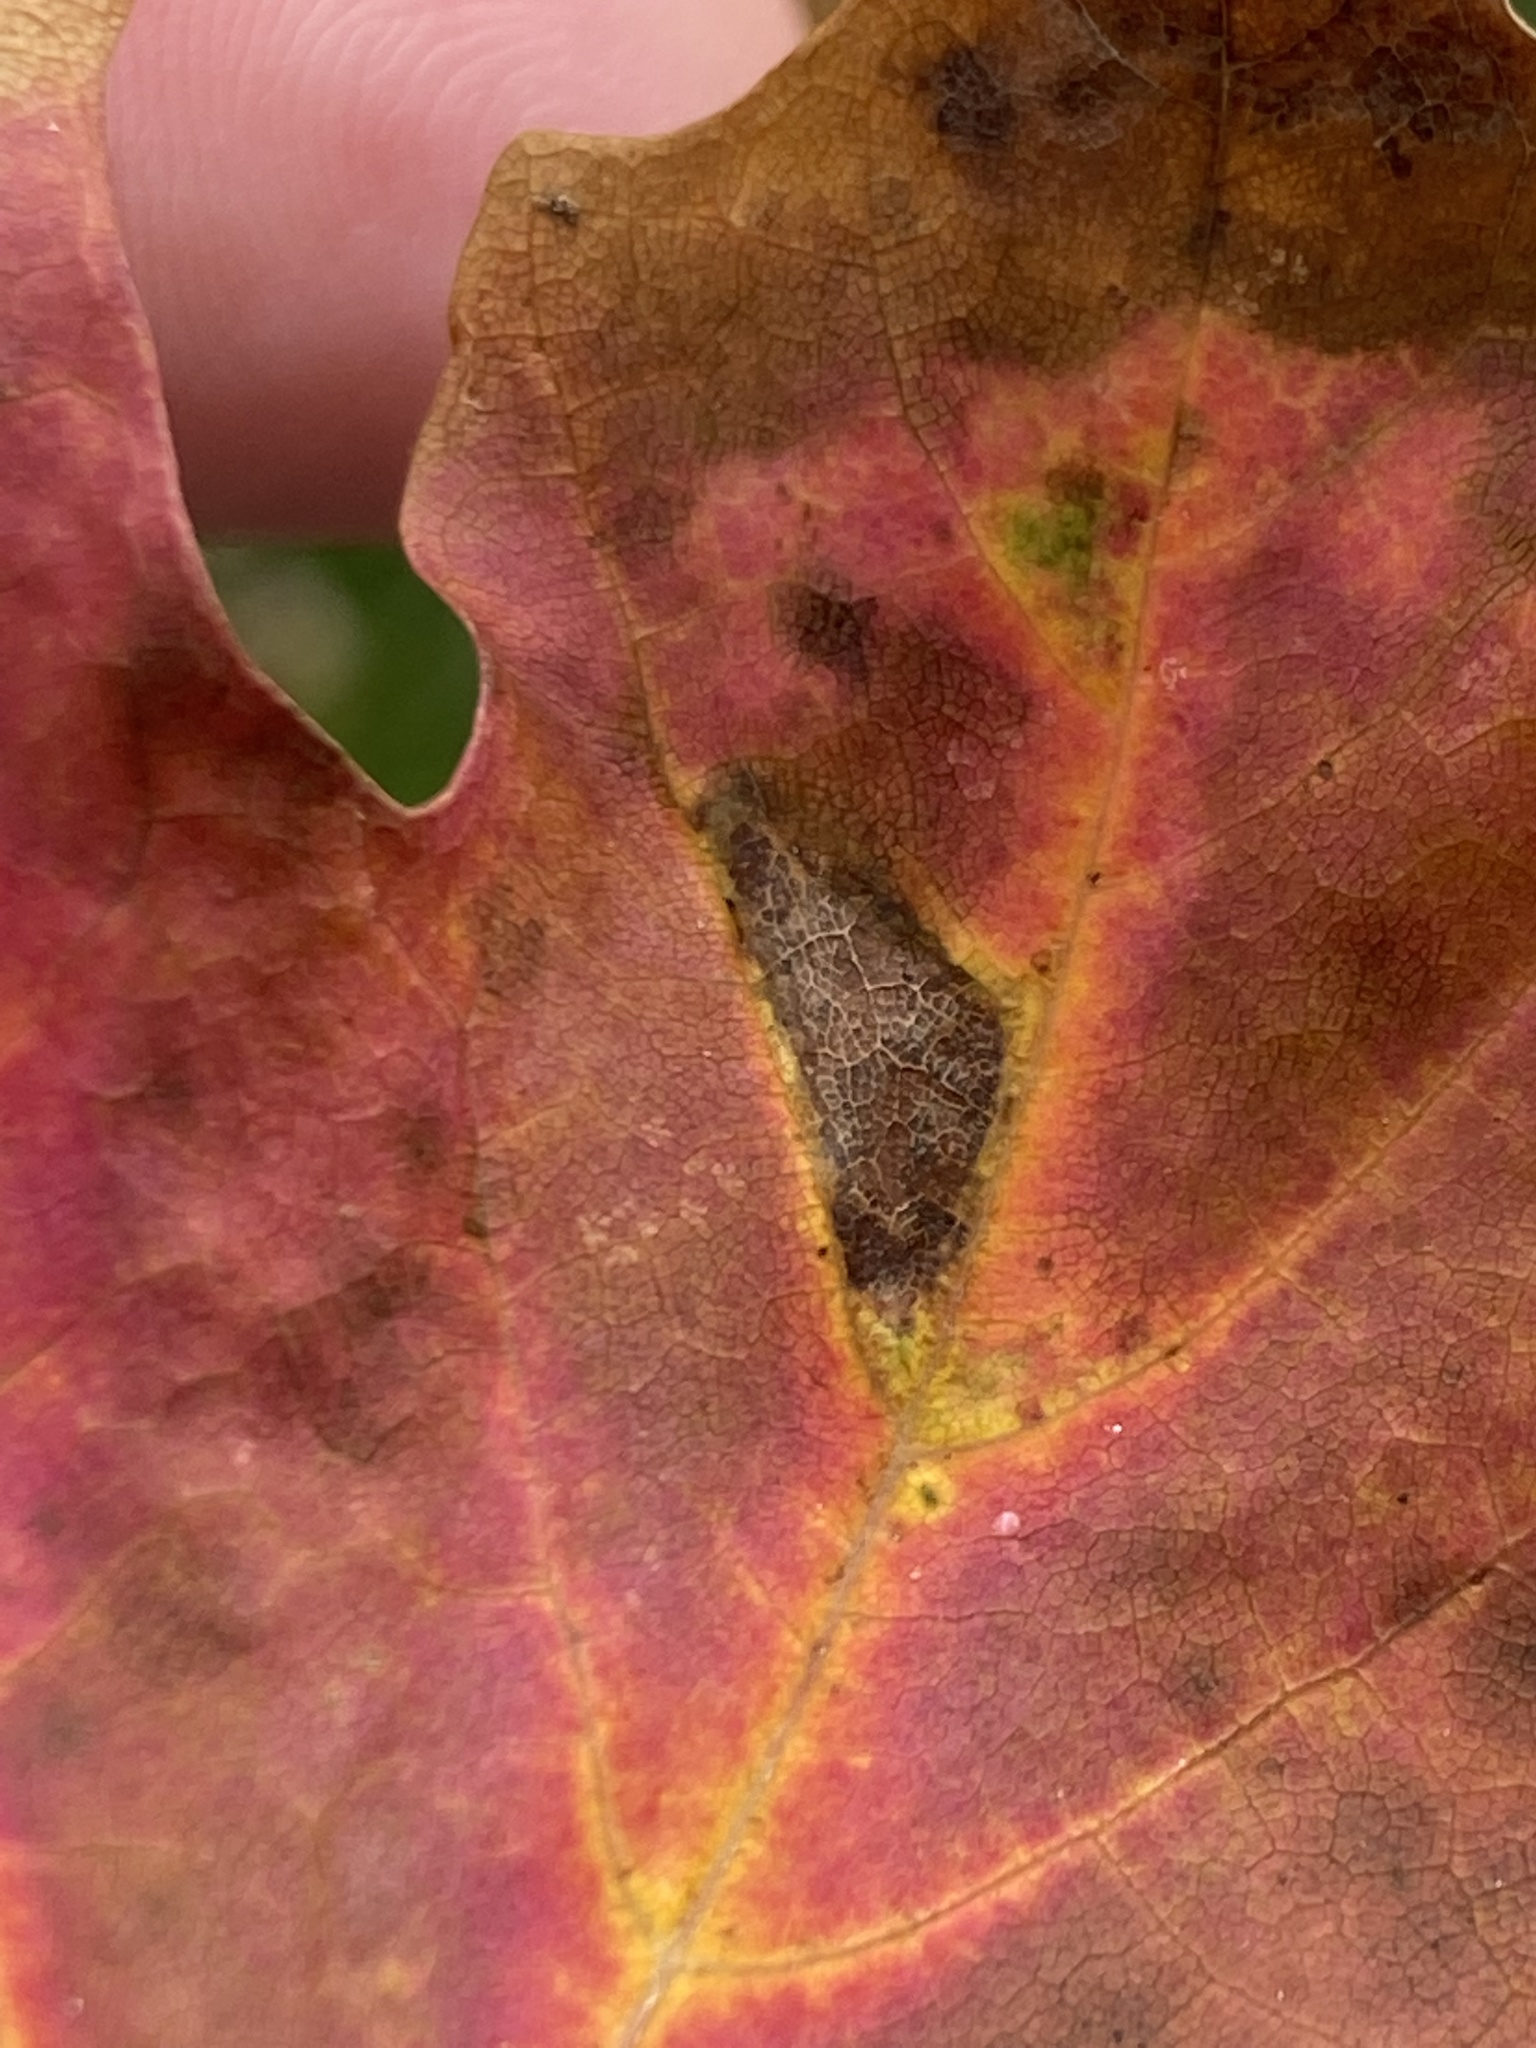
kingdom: Animalia
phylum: Arthropoda
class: Arachnida
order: Trombidiformes
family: Eriophyidae
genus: Aceria
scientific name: Aceria
